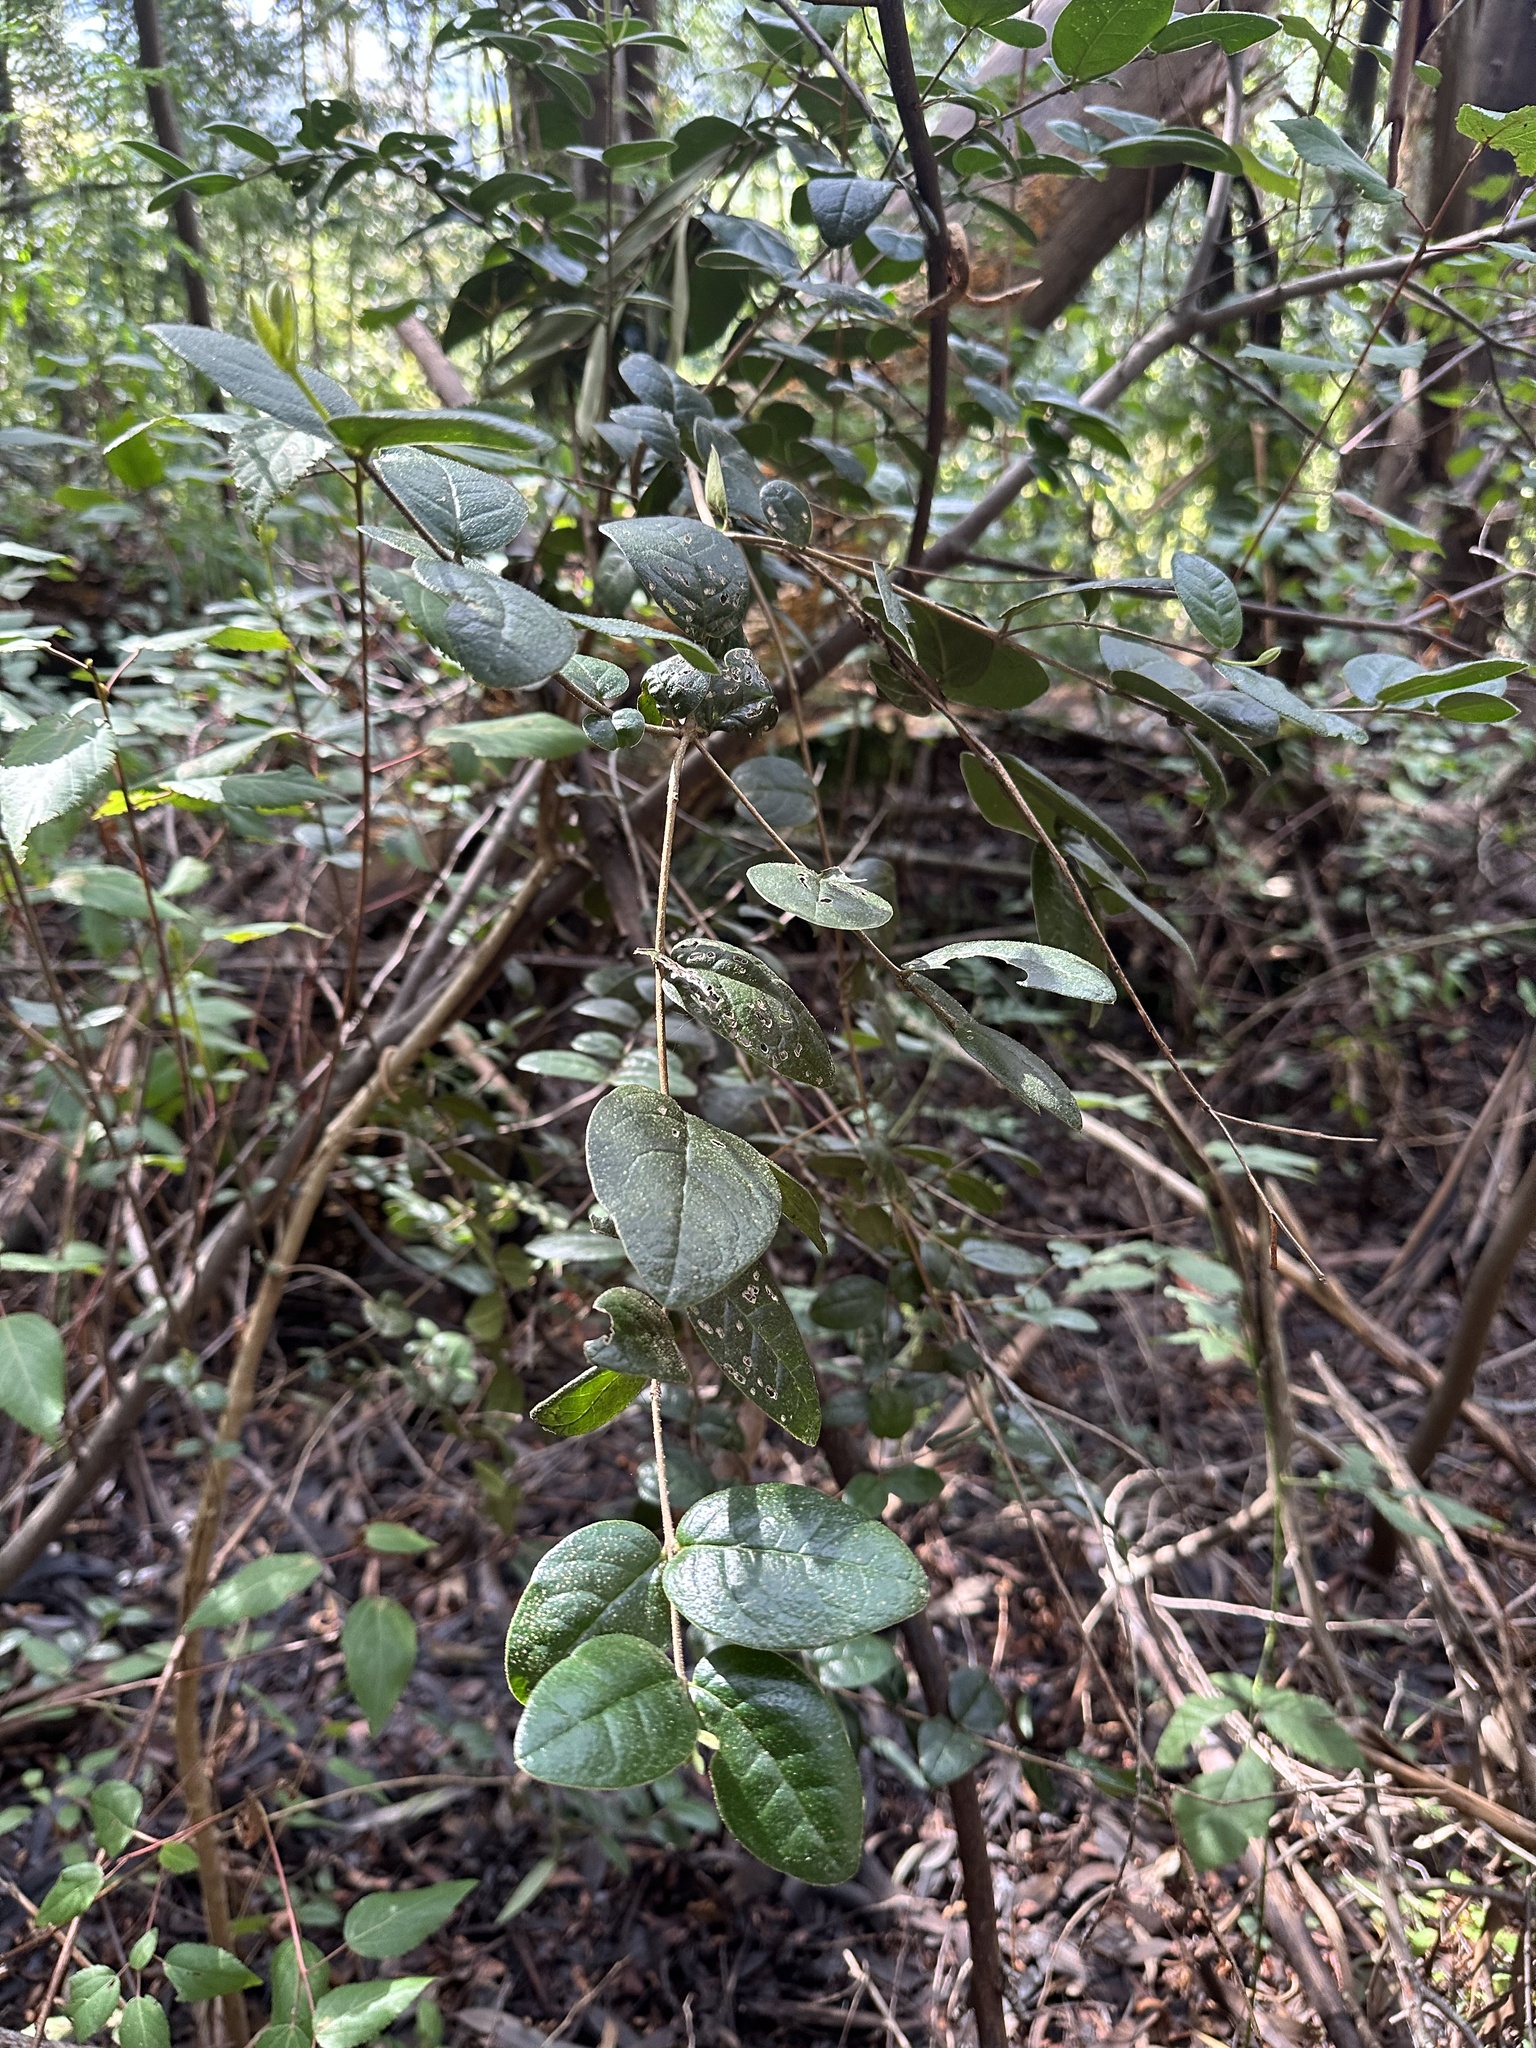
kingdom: Plantae
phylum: Tracheophyta
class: Magnoliopsida
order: Laurales
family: Monimiaceae
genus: Peumus
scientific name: Peumus boldus
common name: Boldo
